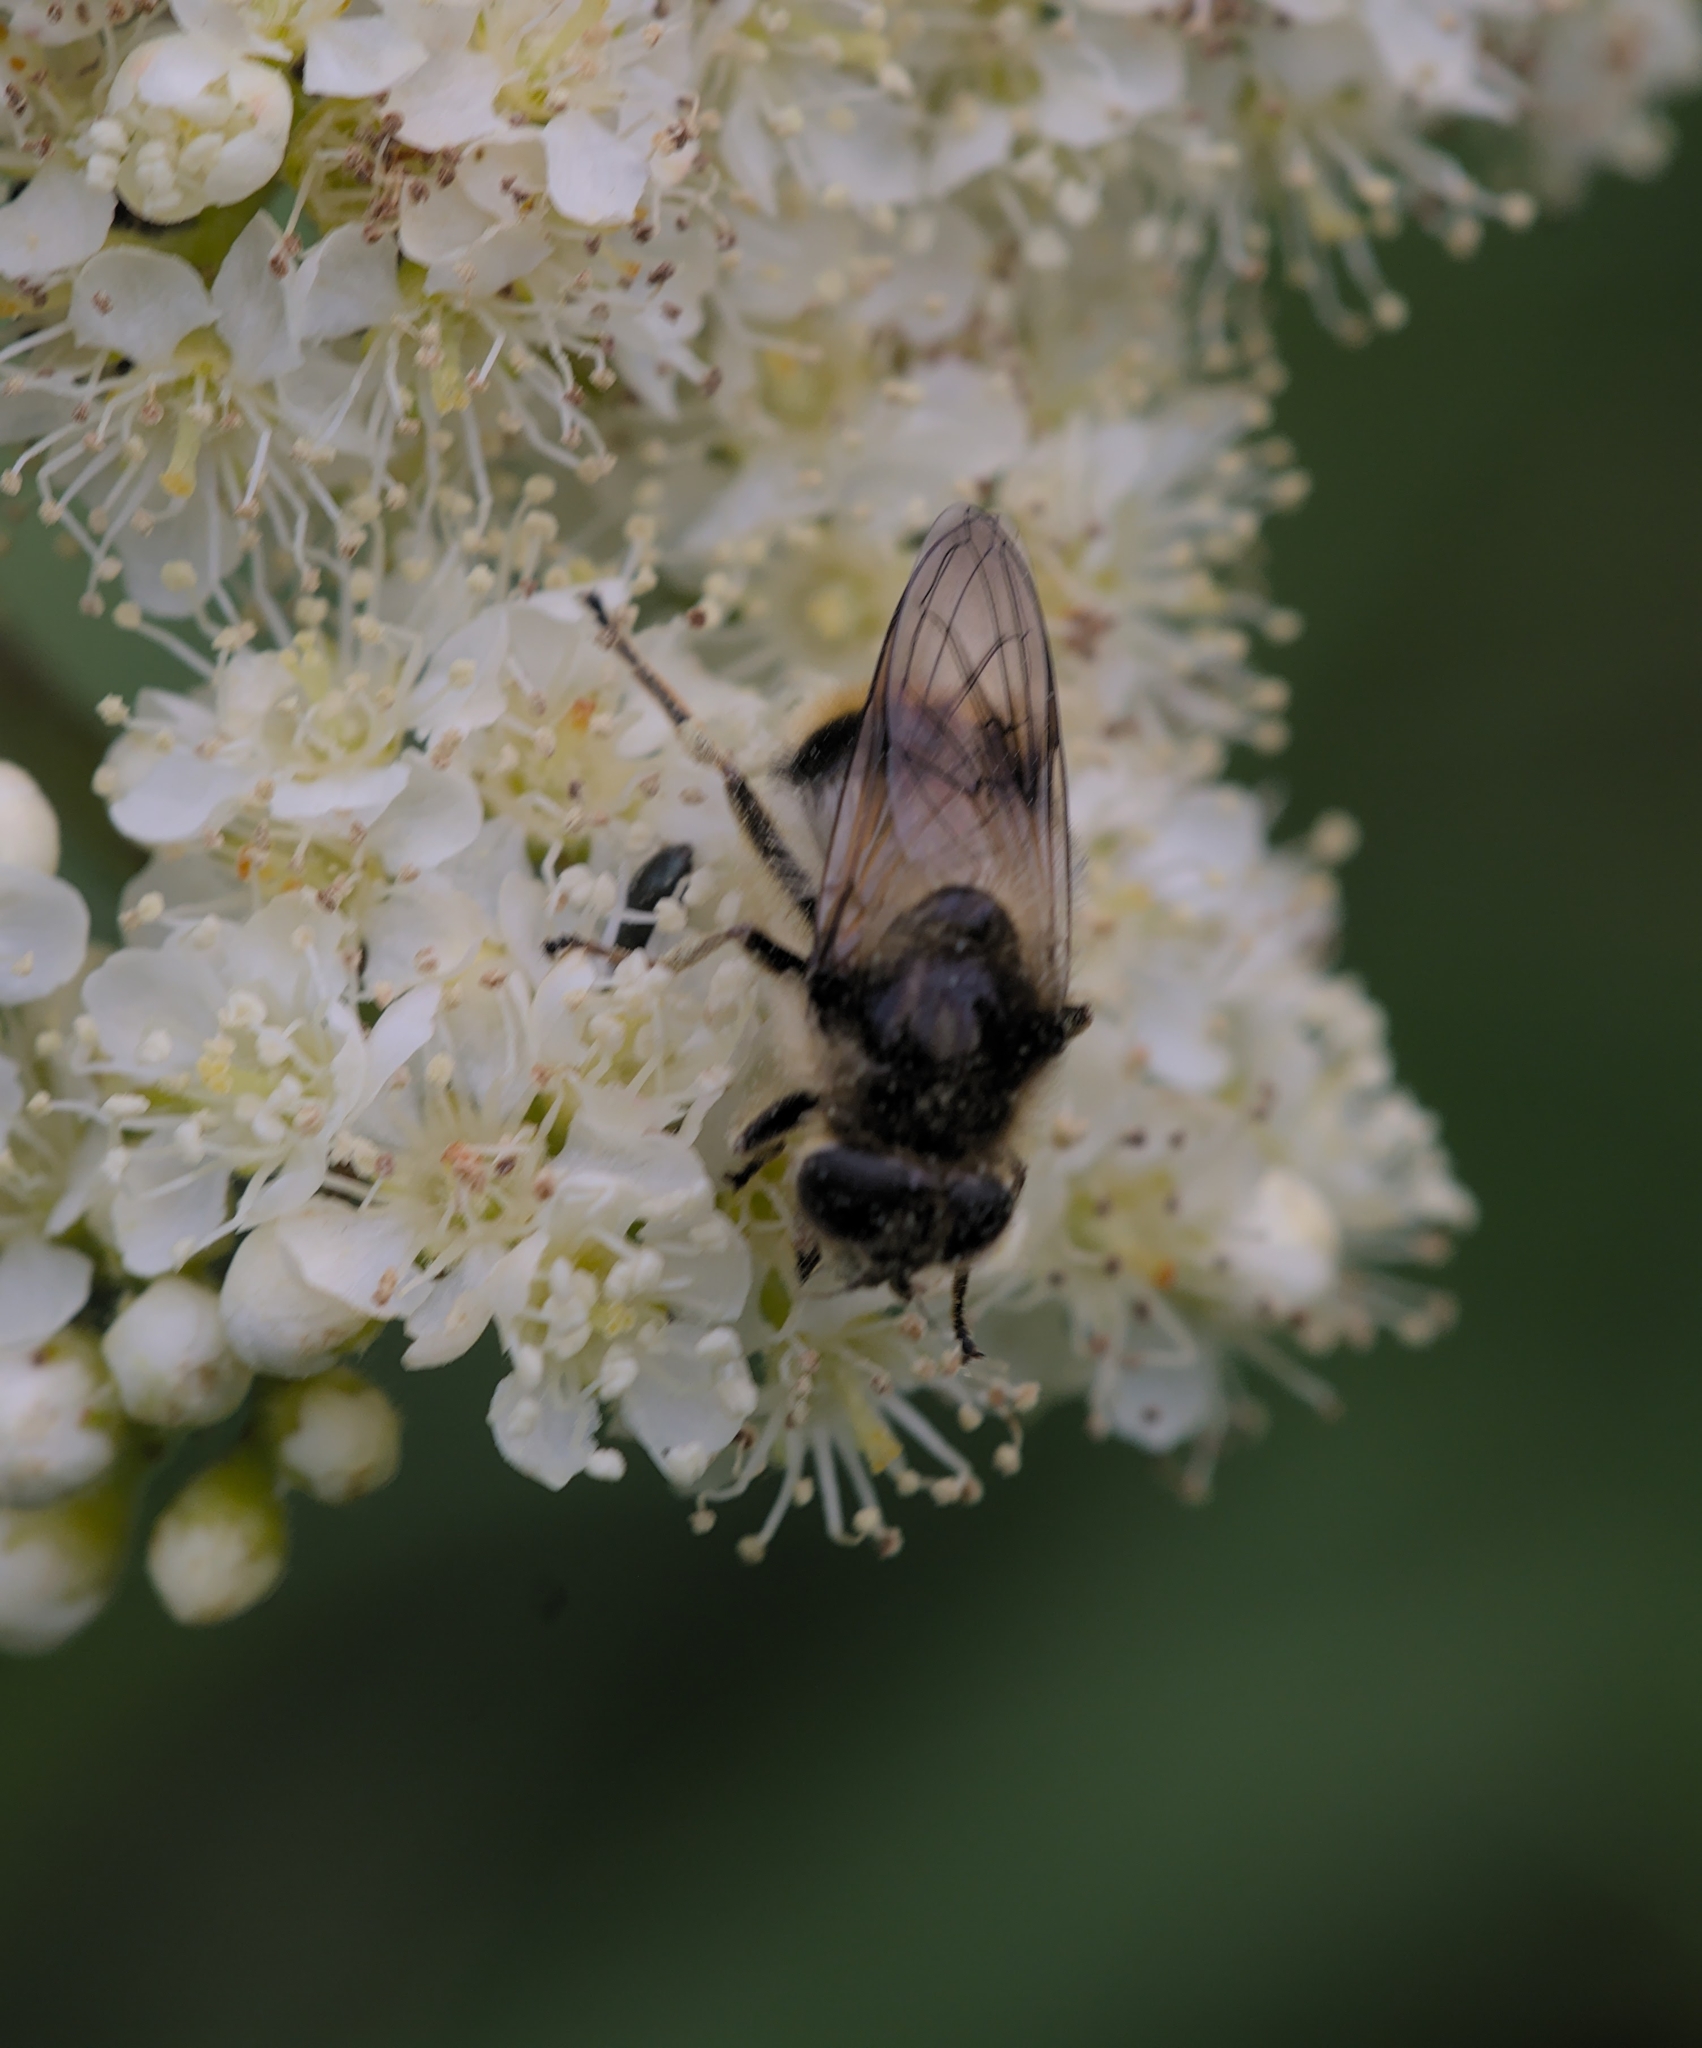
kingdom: Animalia
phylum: Arthropoda
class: Insecta
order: Diptera
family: Syrphidae
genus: Cheilosia
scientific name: Cheilosia illustrata
